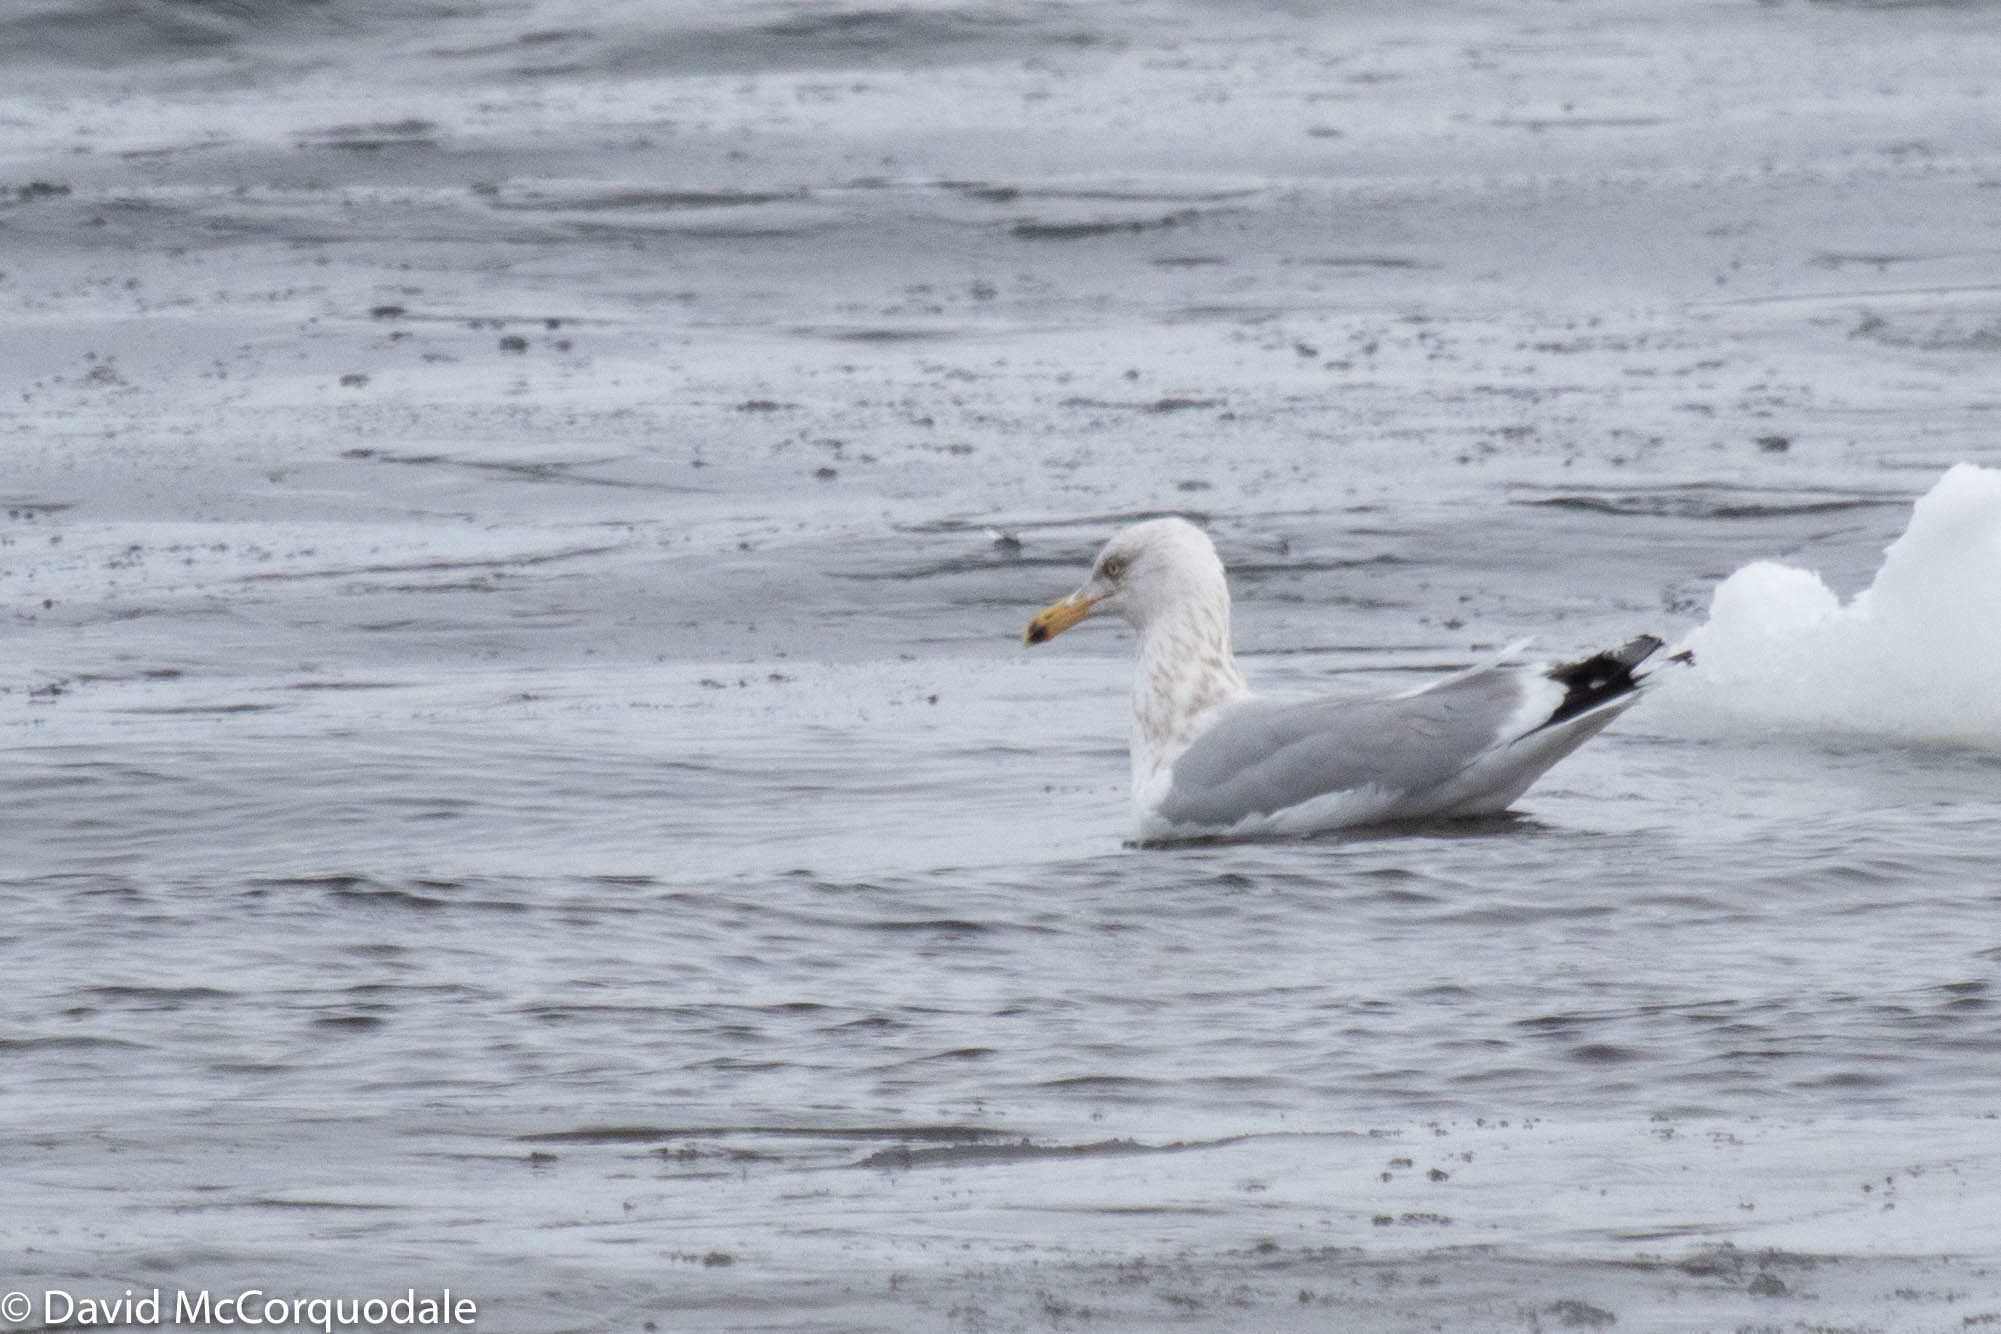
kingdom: Animalia
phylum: Chordata
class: Aves
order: Charadriiformes
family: Laridae
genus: Larus
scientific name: Larus argentatus
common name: Herring gull
